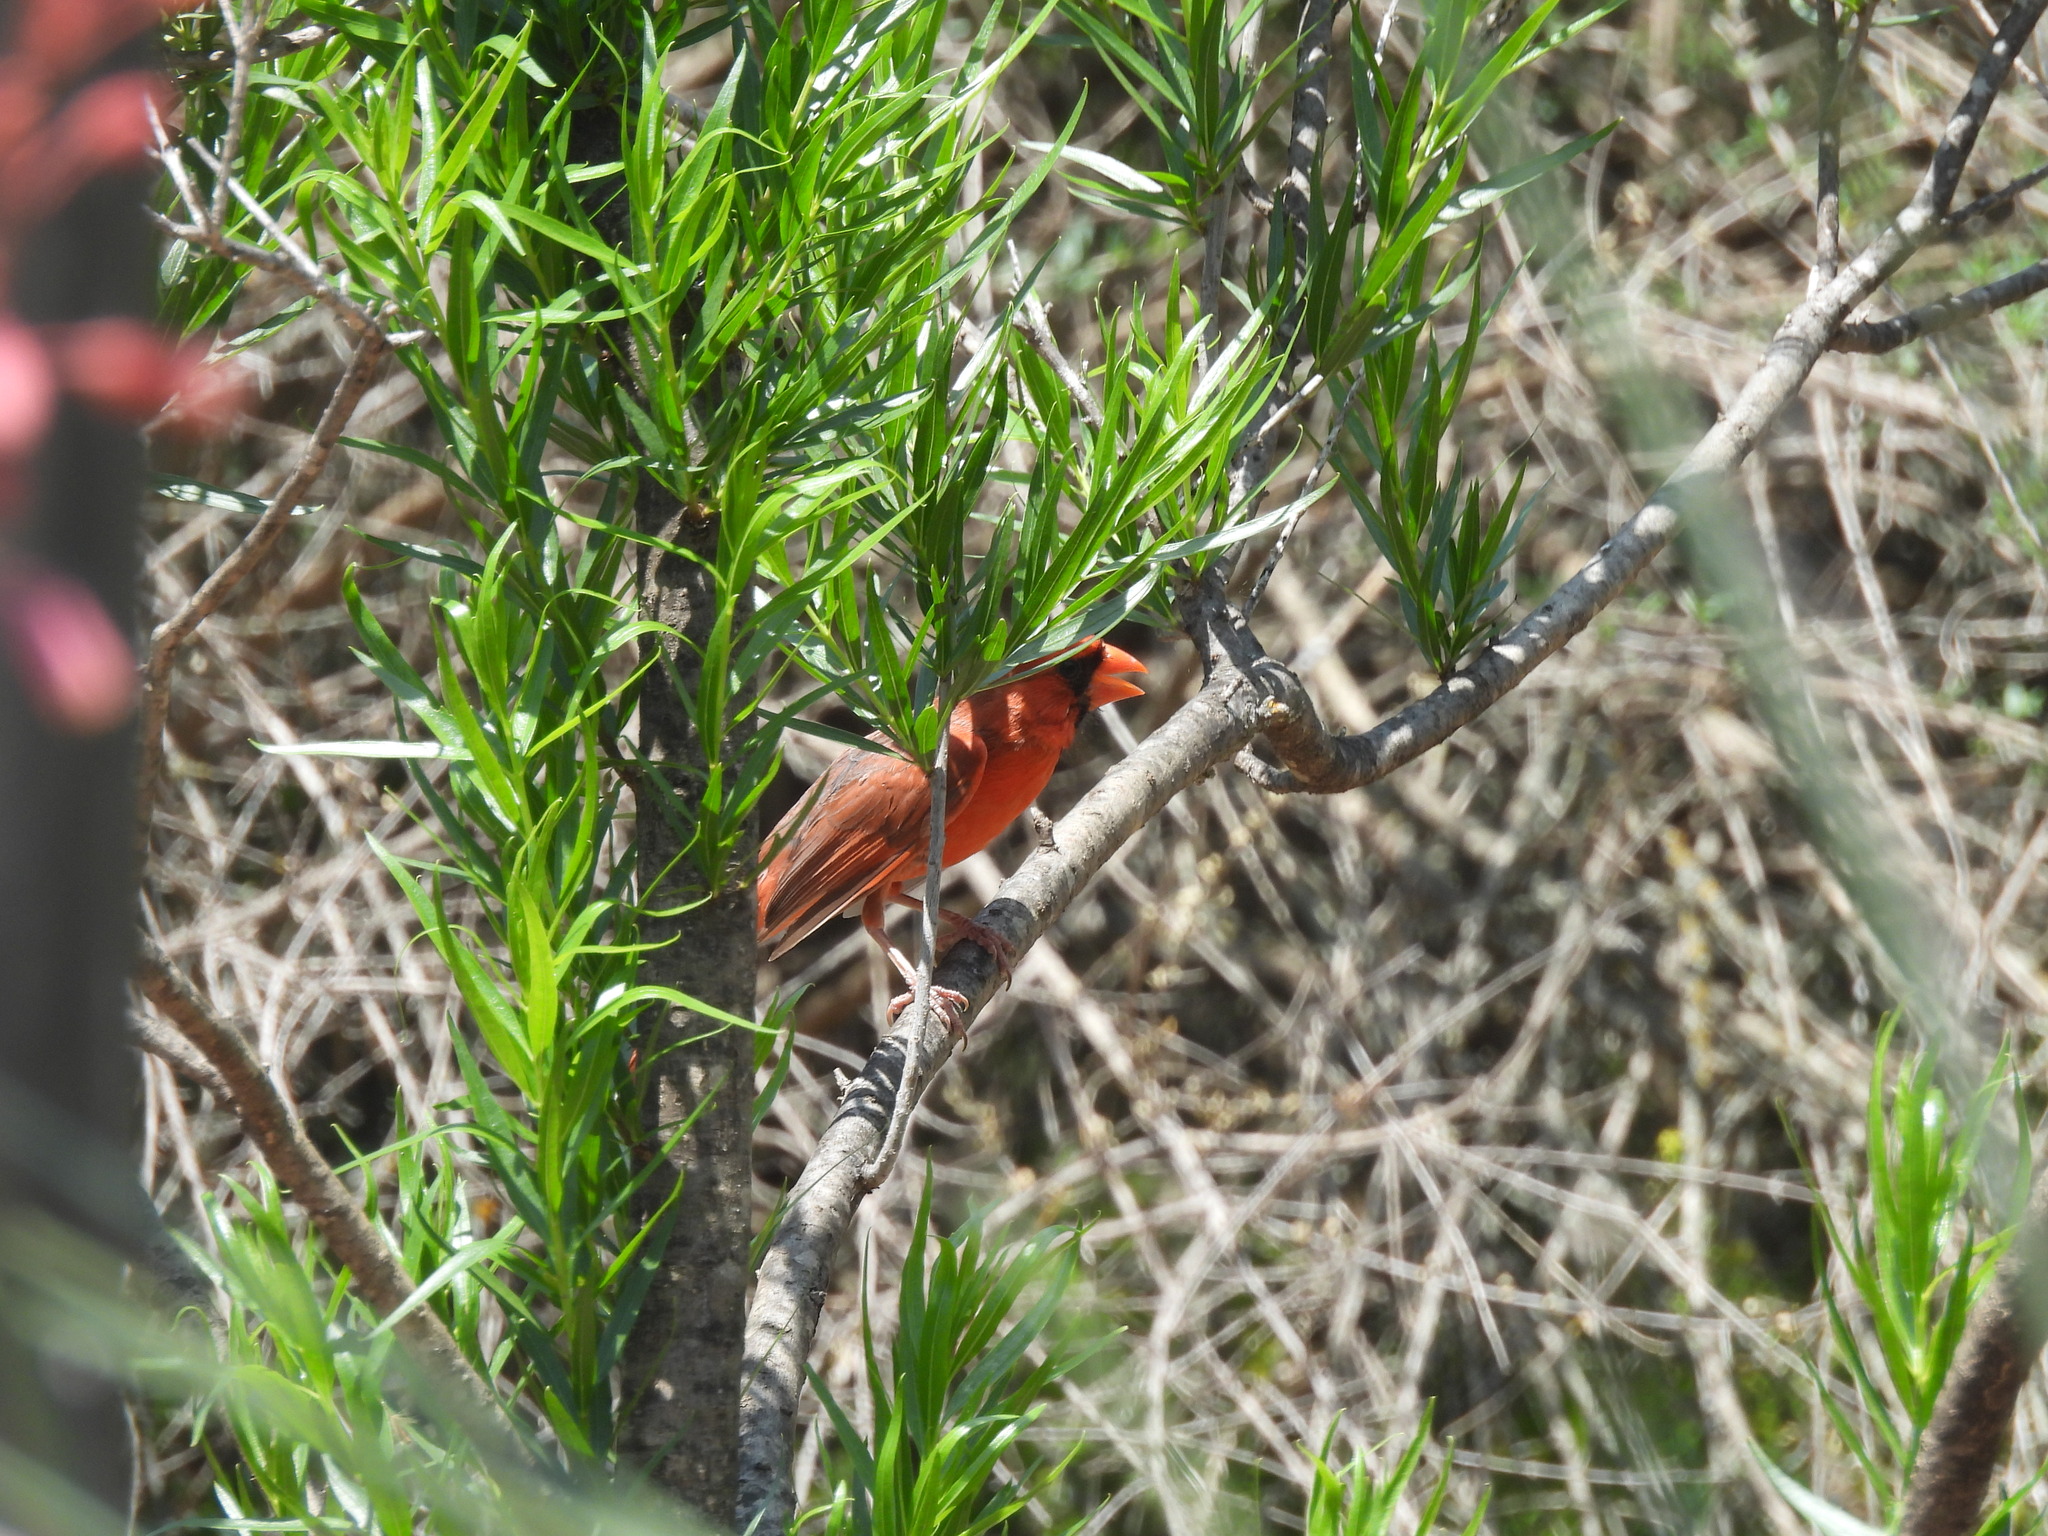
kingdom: Animalia
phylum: Chordata
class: Aves
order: Passeriformes
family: Cardinalidae
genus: Cardinalis
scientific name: Cardinalis cardinalis
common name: Northern cardinal
